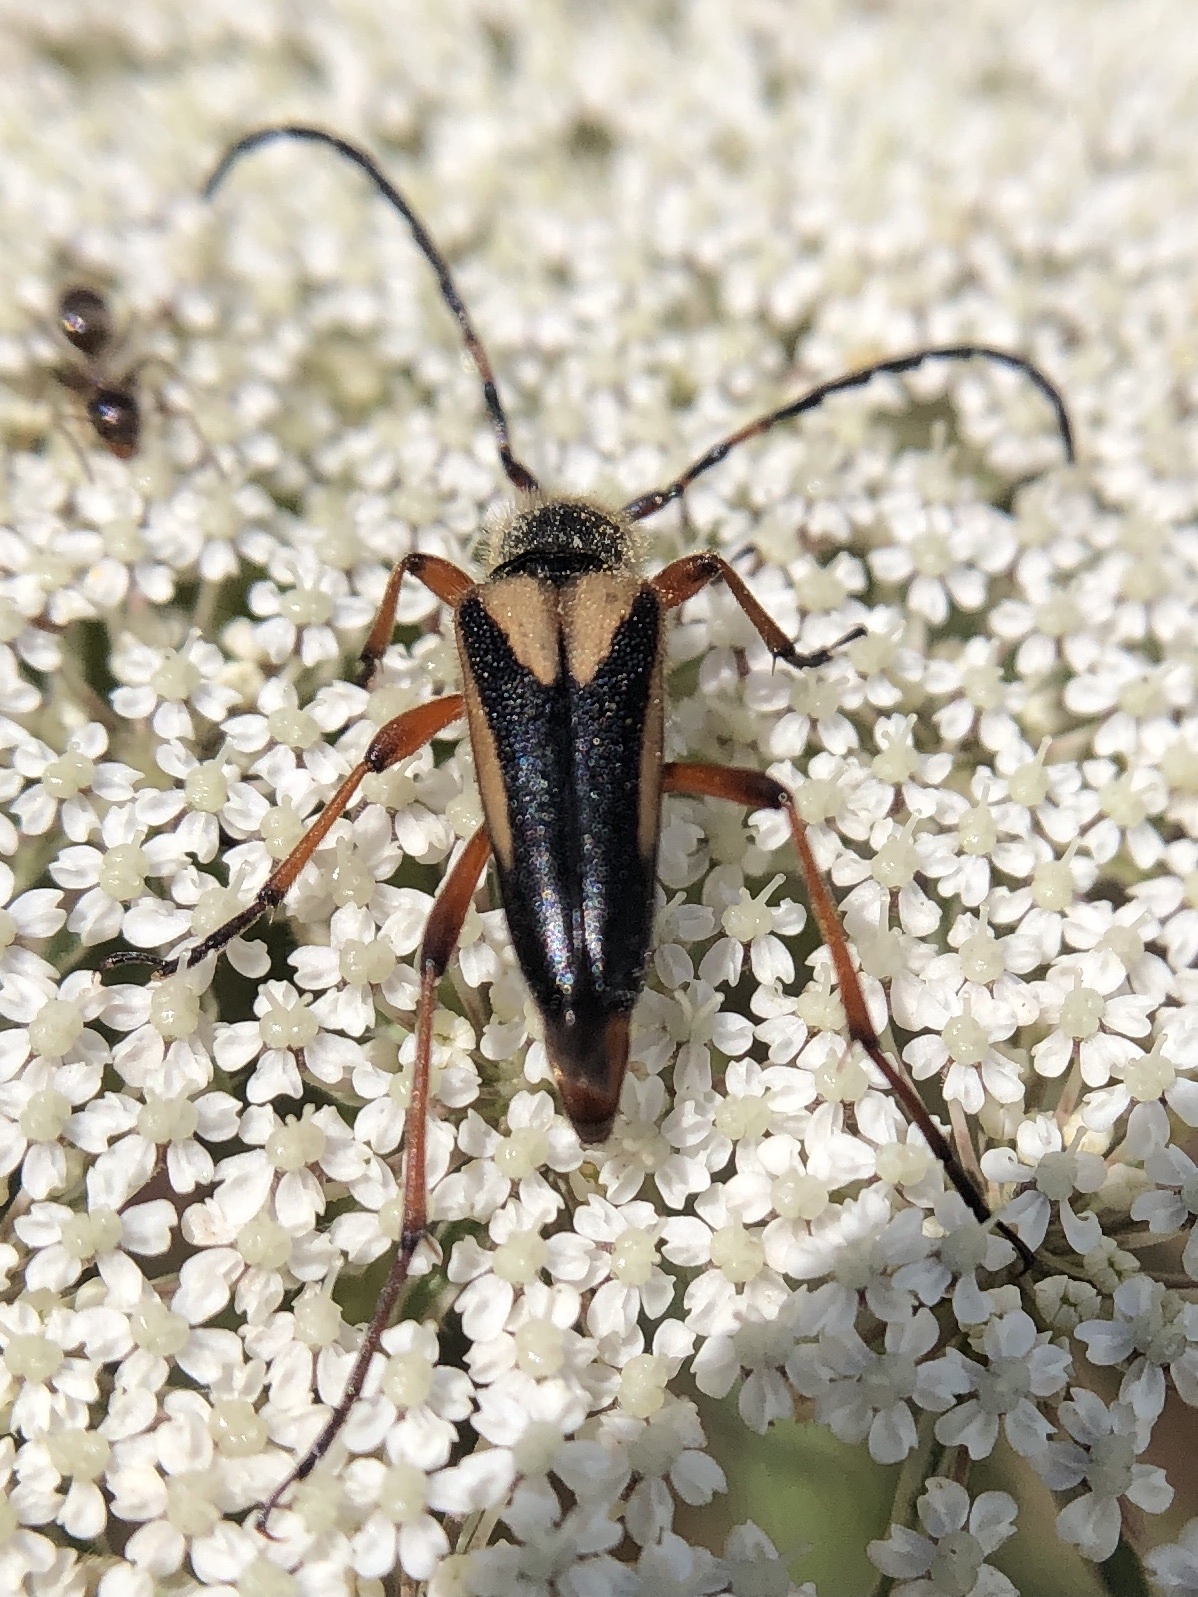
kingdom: Animalia
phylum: Arthropoda
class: Insecta
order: Coleoptera
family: Cerambycidae
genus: Stictoleptura
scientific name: Stictoleptura stragulata
